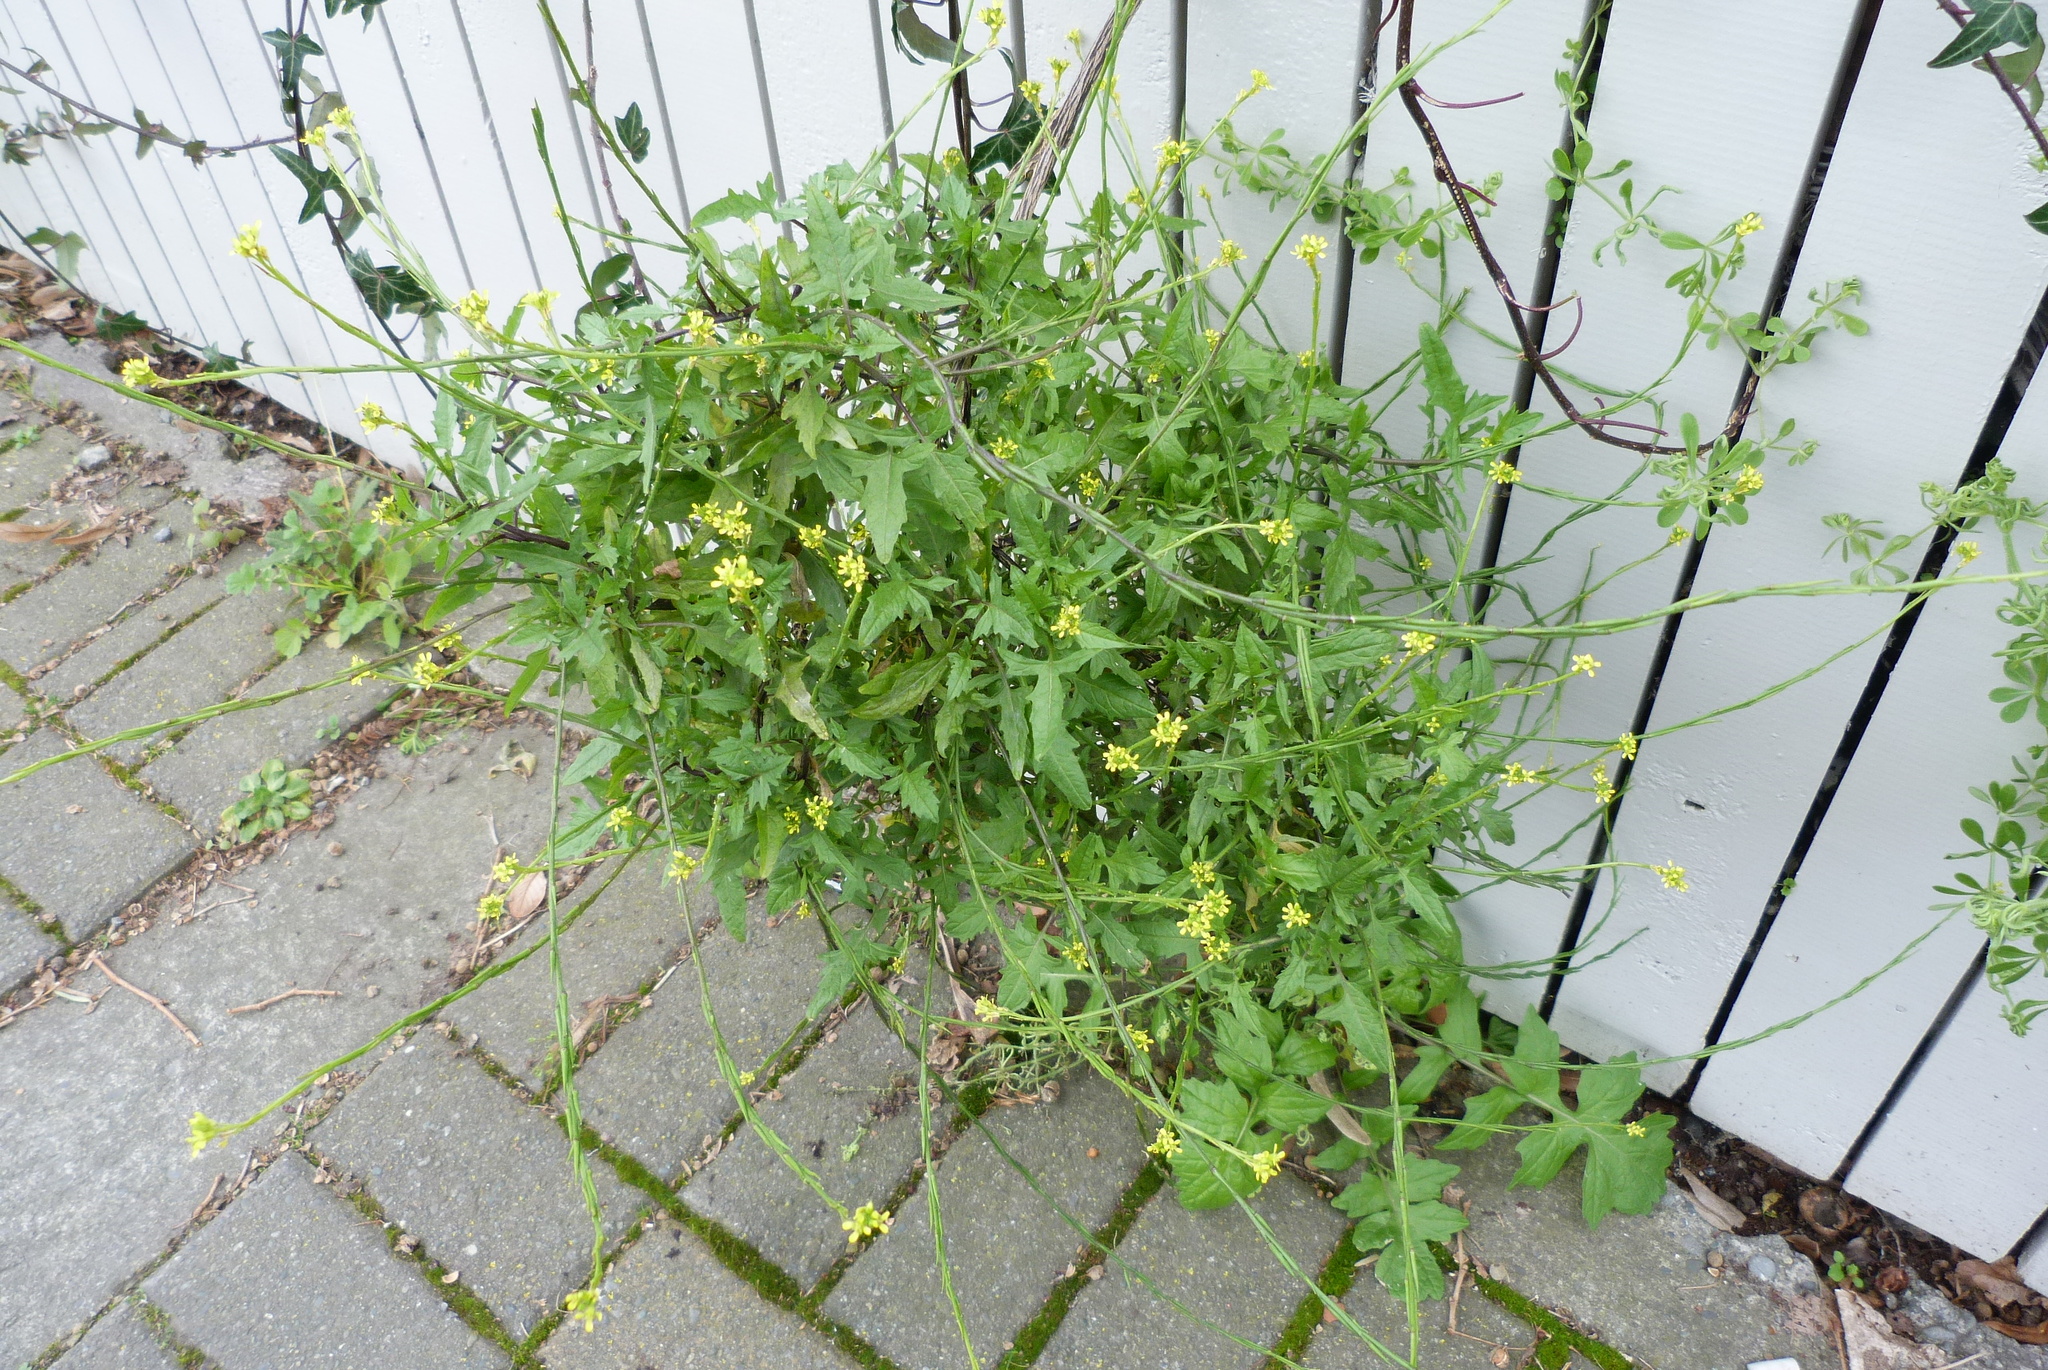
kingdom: Plantae
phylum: Tracheophyta
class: Magnoliopsida
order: Brassicales
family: Brassicaceae
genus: Sisymbrium
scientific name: Sisymbrium officinale
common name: Hedge mustard
